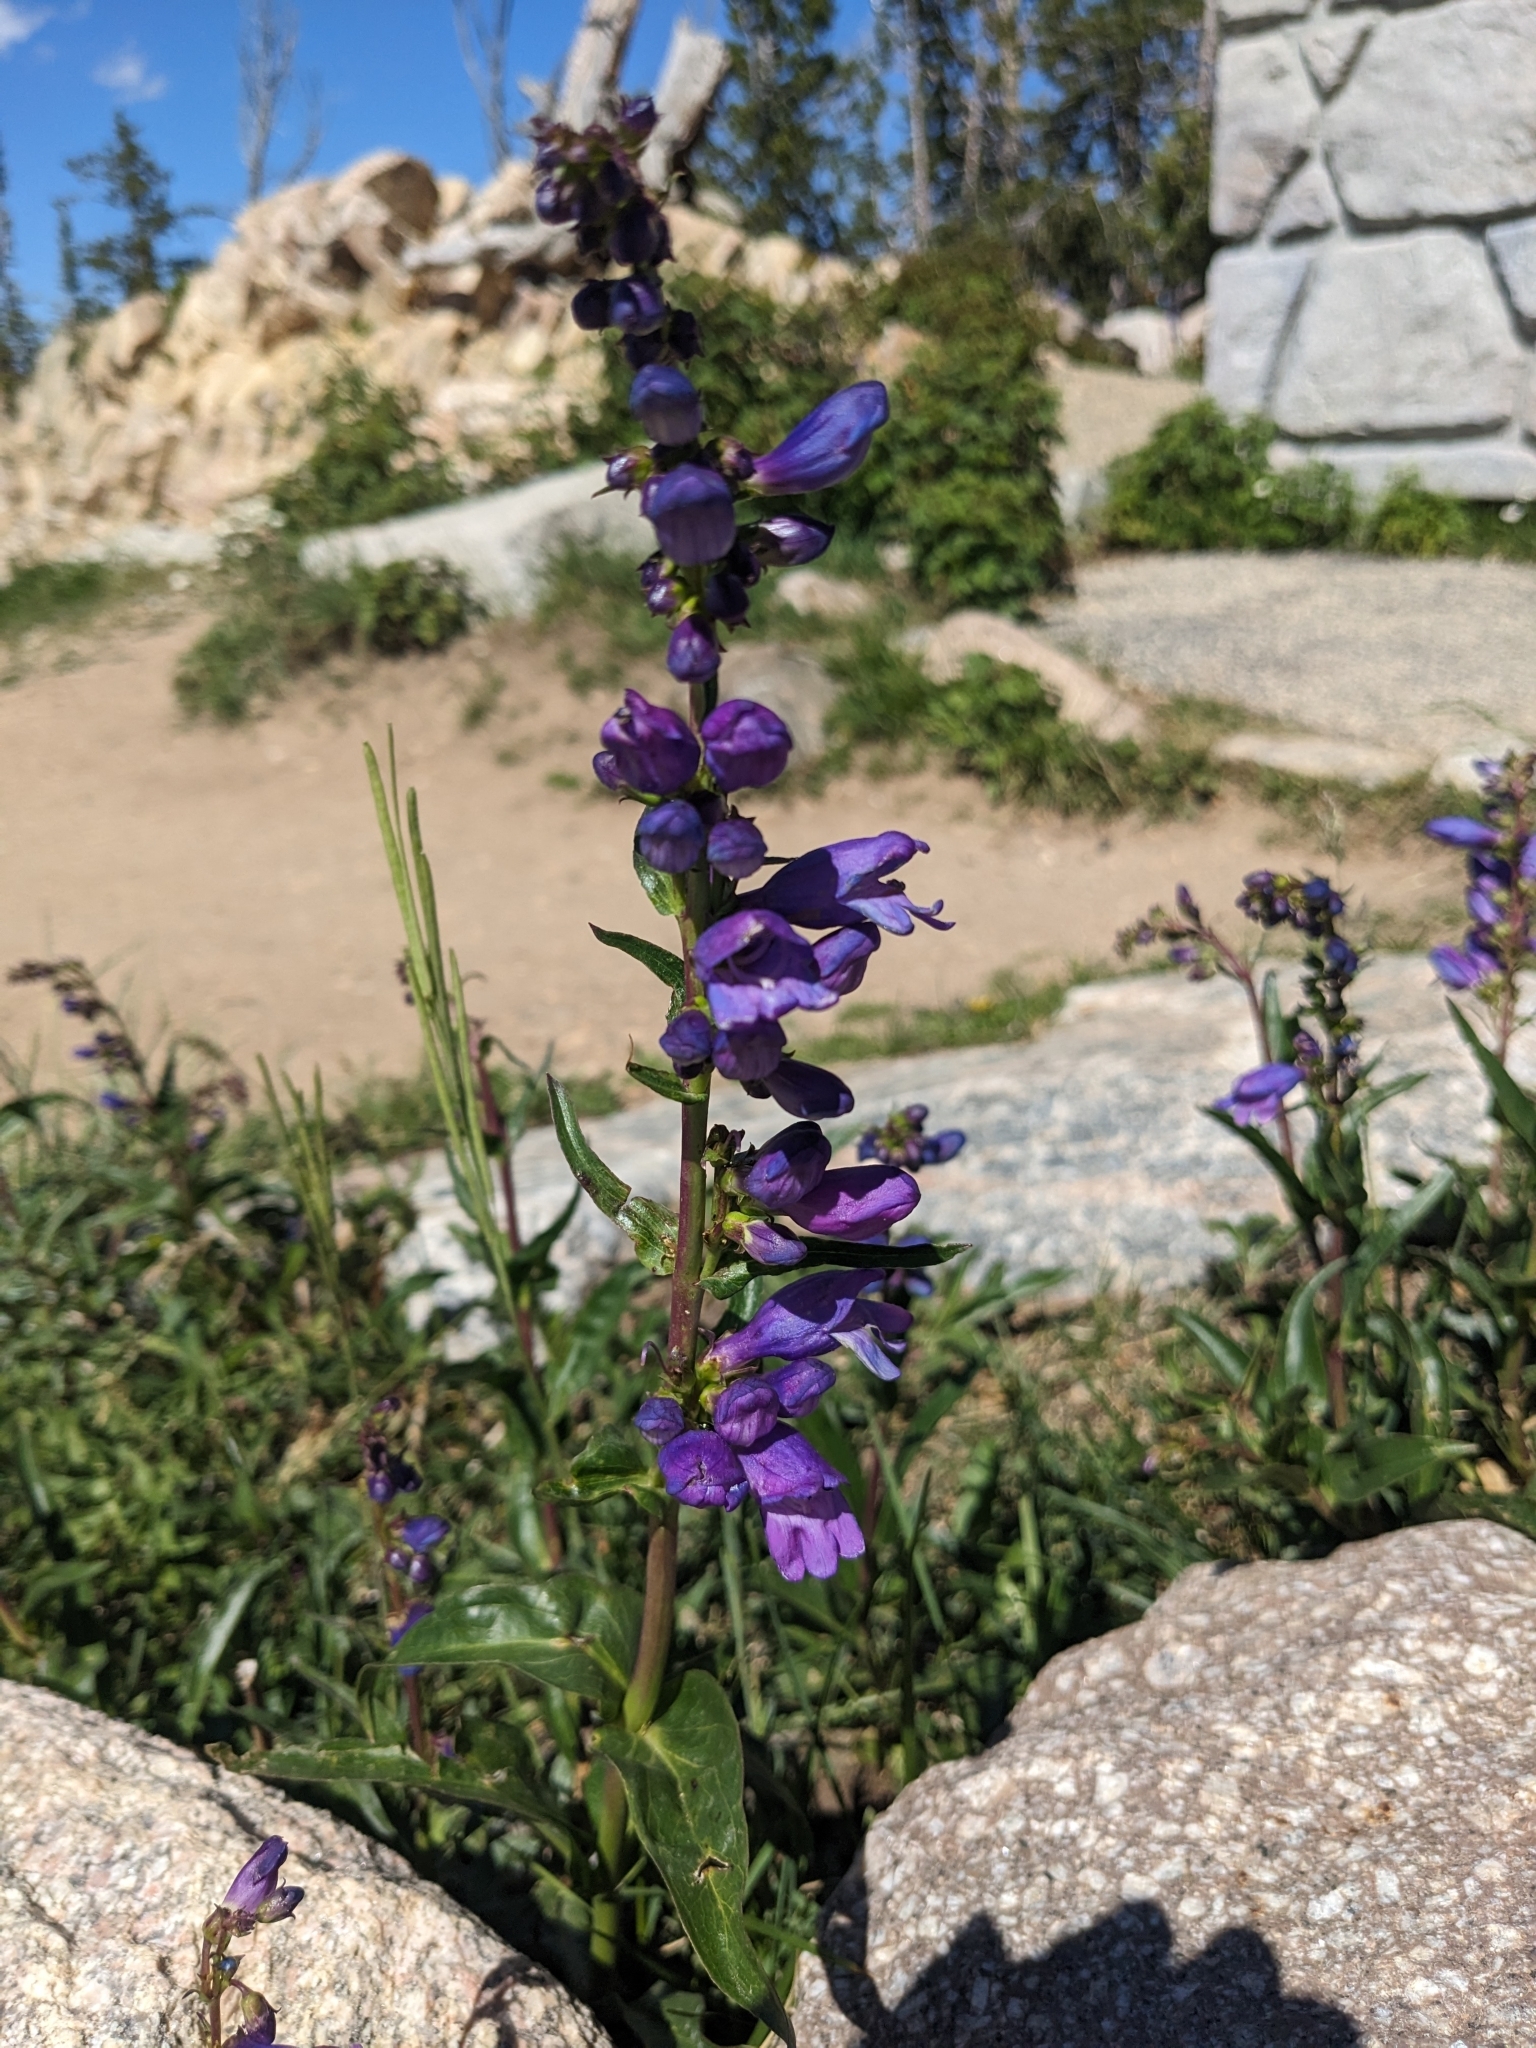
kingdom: Plantae
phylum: Tracheophyta
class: Magnoliopsida
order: Lamiales
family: Plantaginaceae
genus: Penstemon
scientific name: Penstemon strictus
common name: Rocky mountain penstemon
